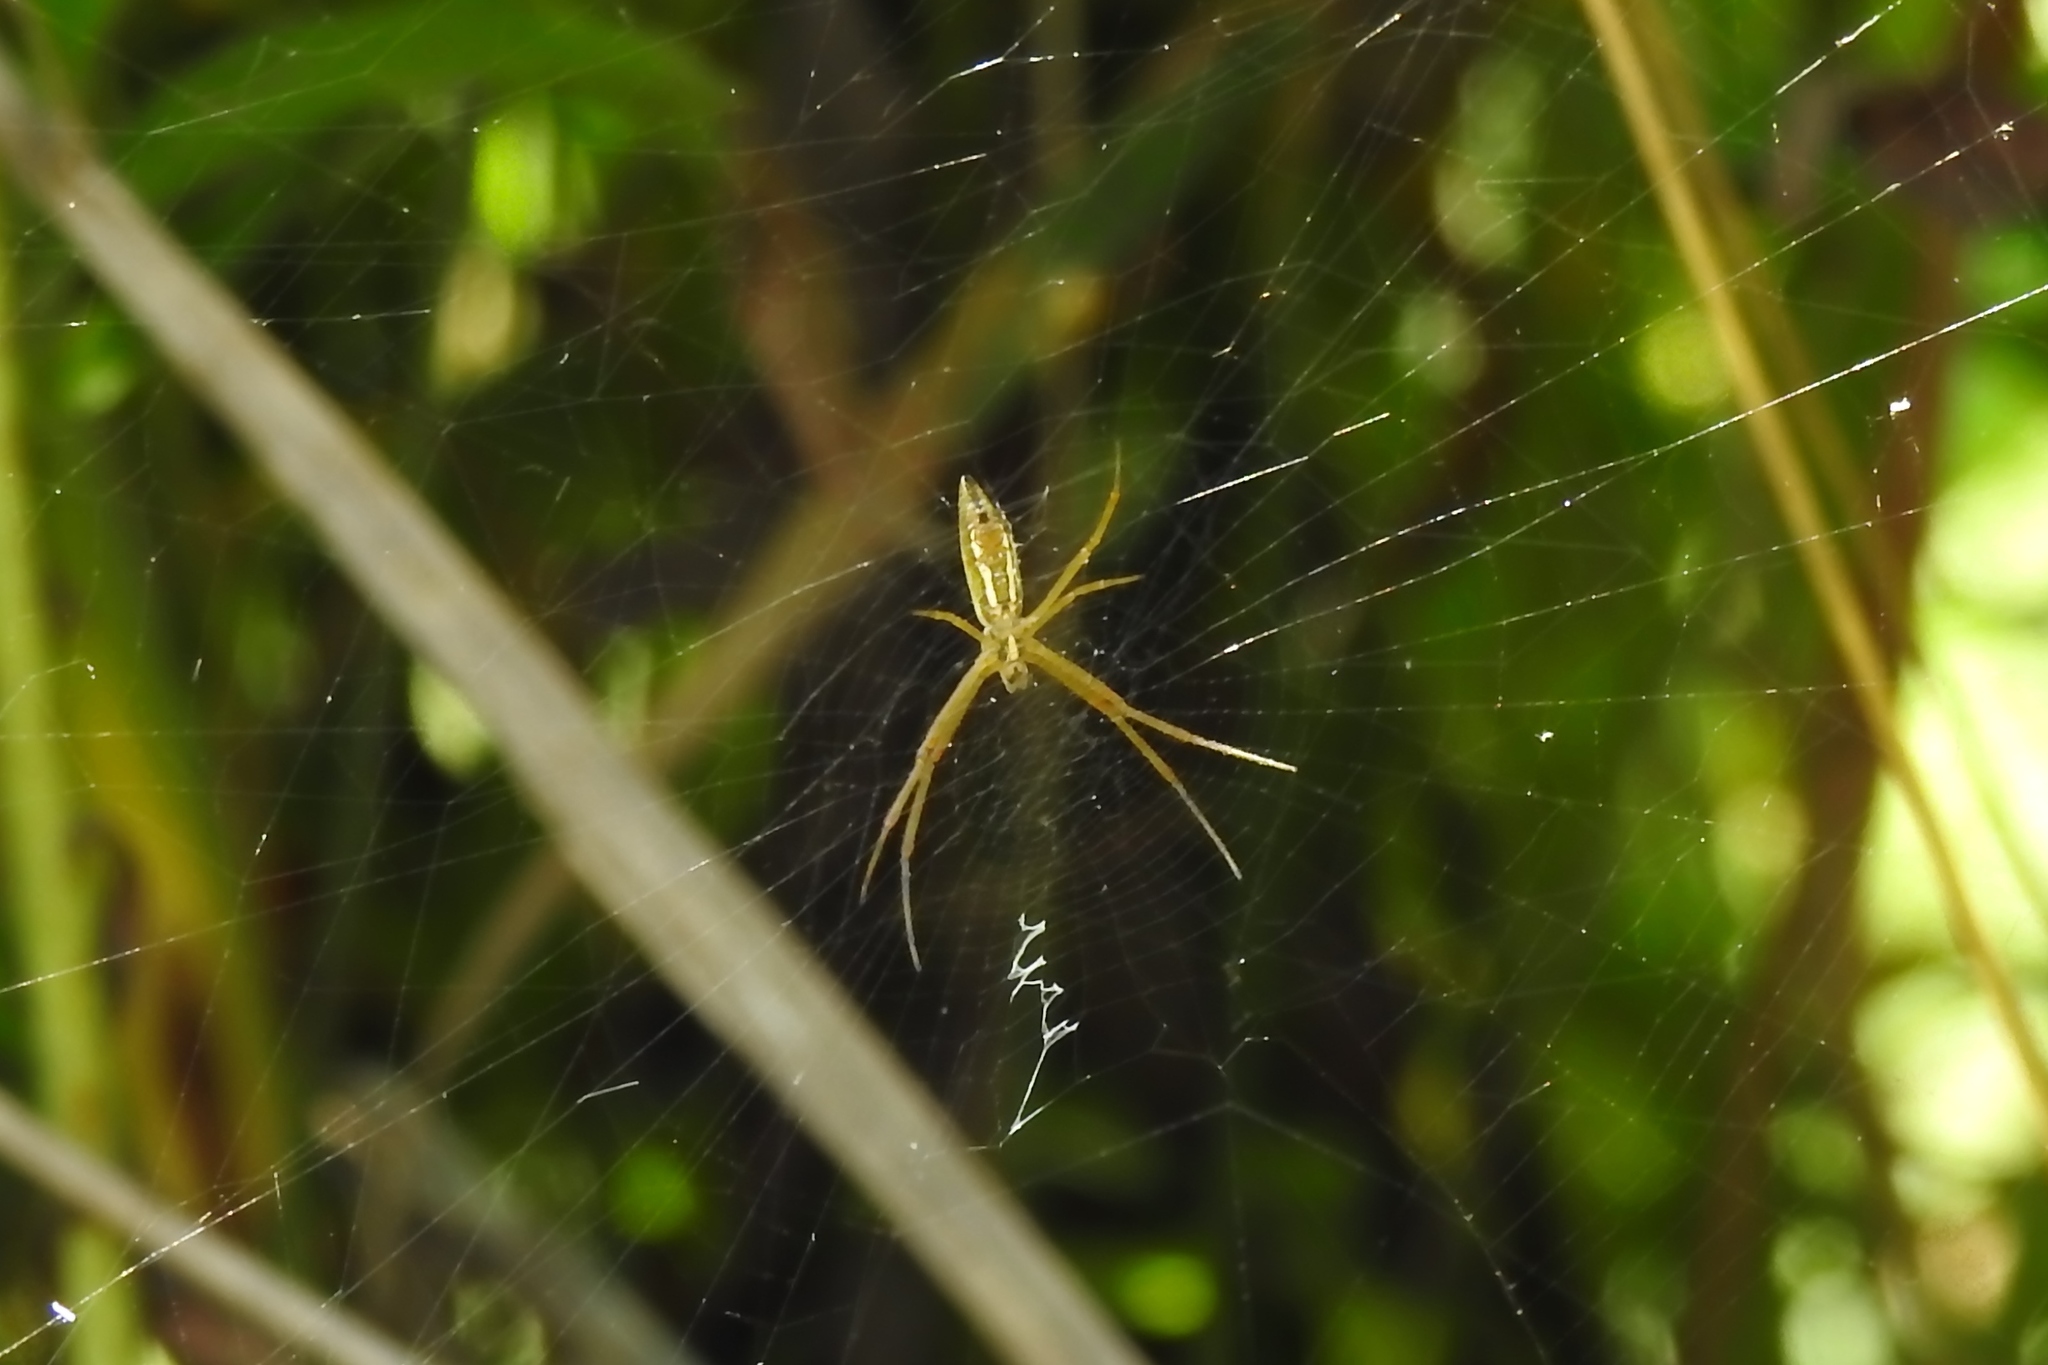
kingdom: Animalia
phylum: Arthropoda
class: Arachnida
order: Araneae
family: Araneidae
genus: Argiope
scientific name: Argiope trifasciata
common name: Banded garden spider
